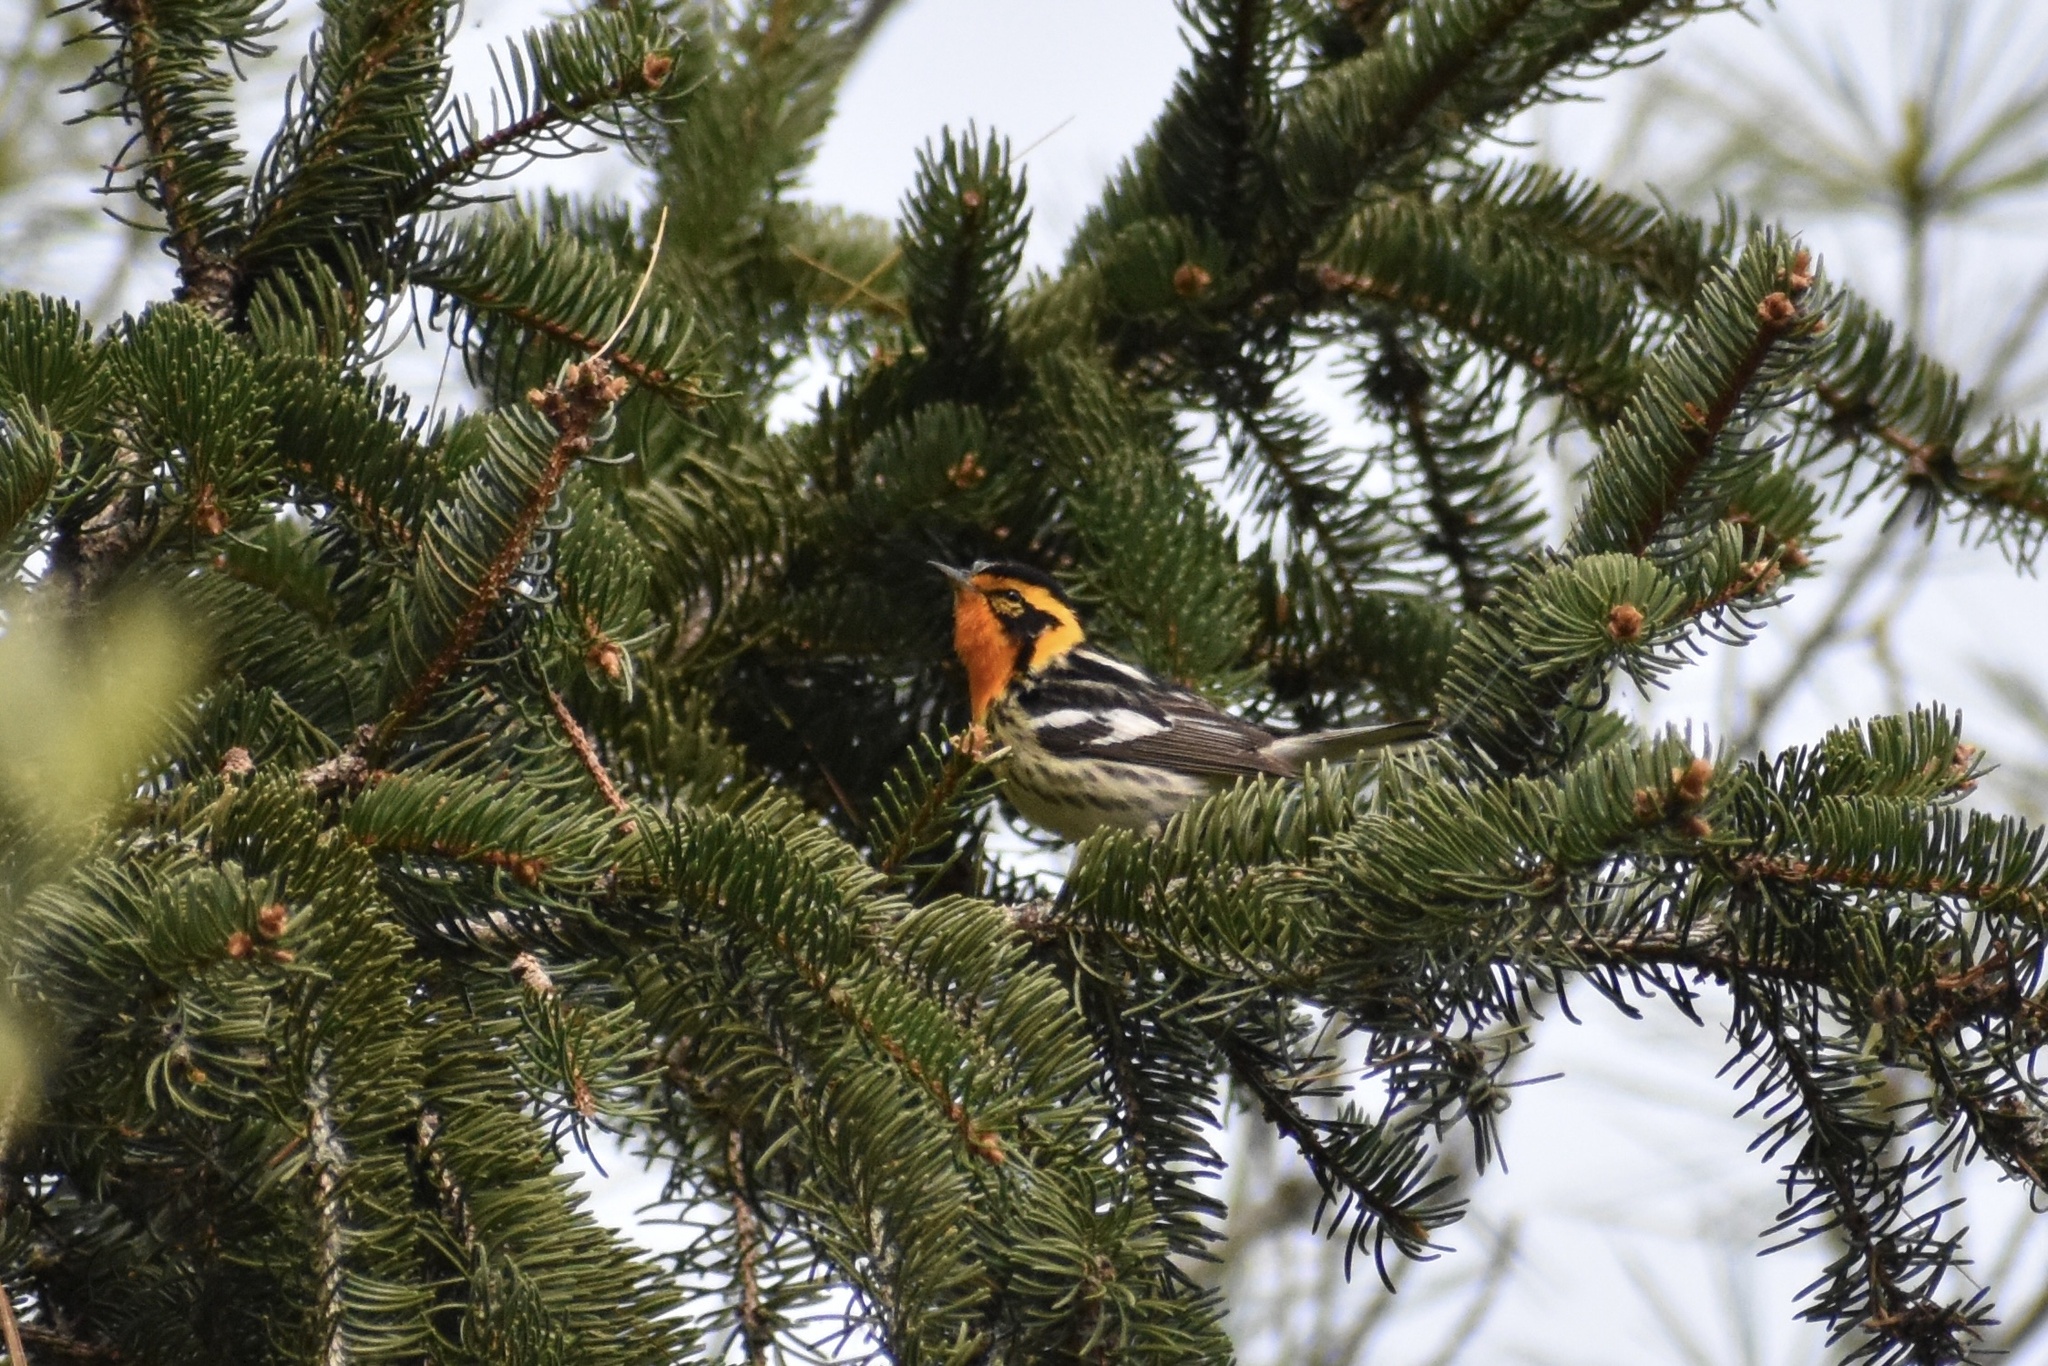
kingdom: Animalia
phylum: Chordata
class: Aves
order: Passeriformes
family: Parulidae
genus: Setophaga
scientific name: Setophaga fusca
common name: Blackburnian warbler
